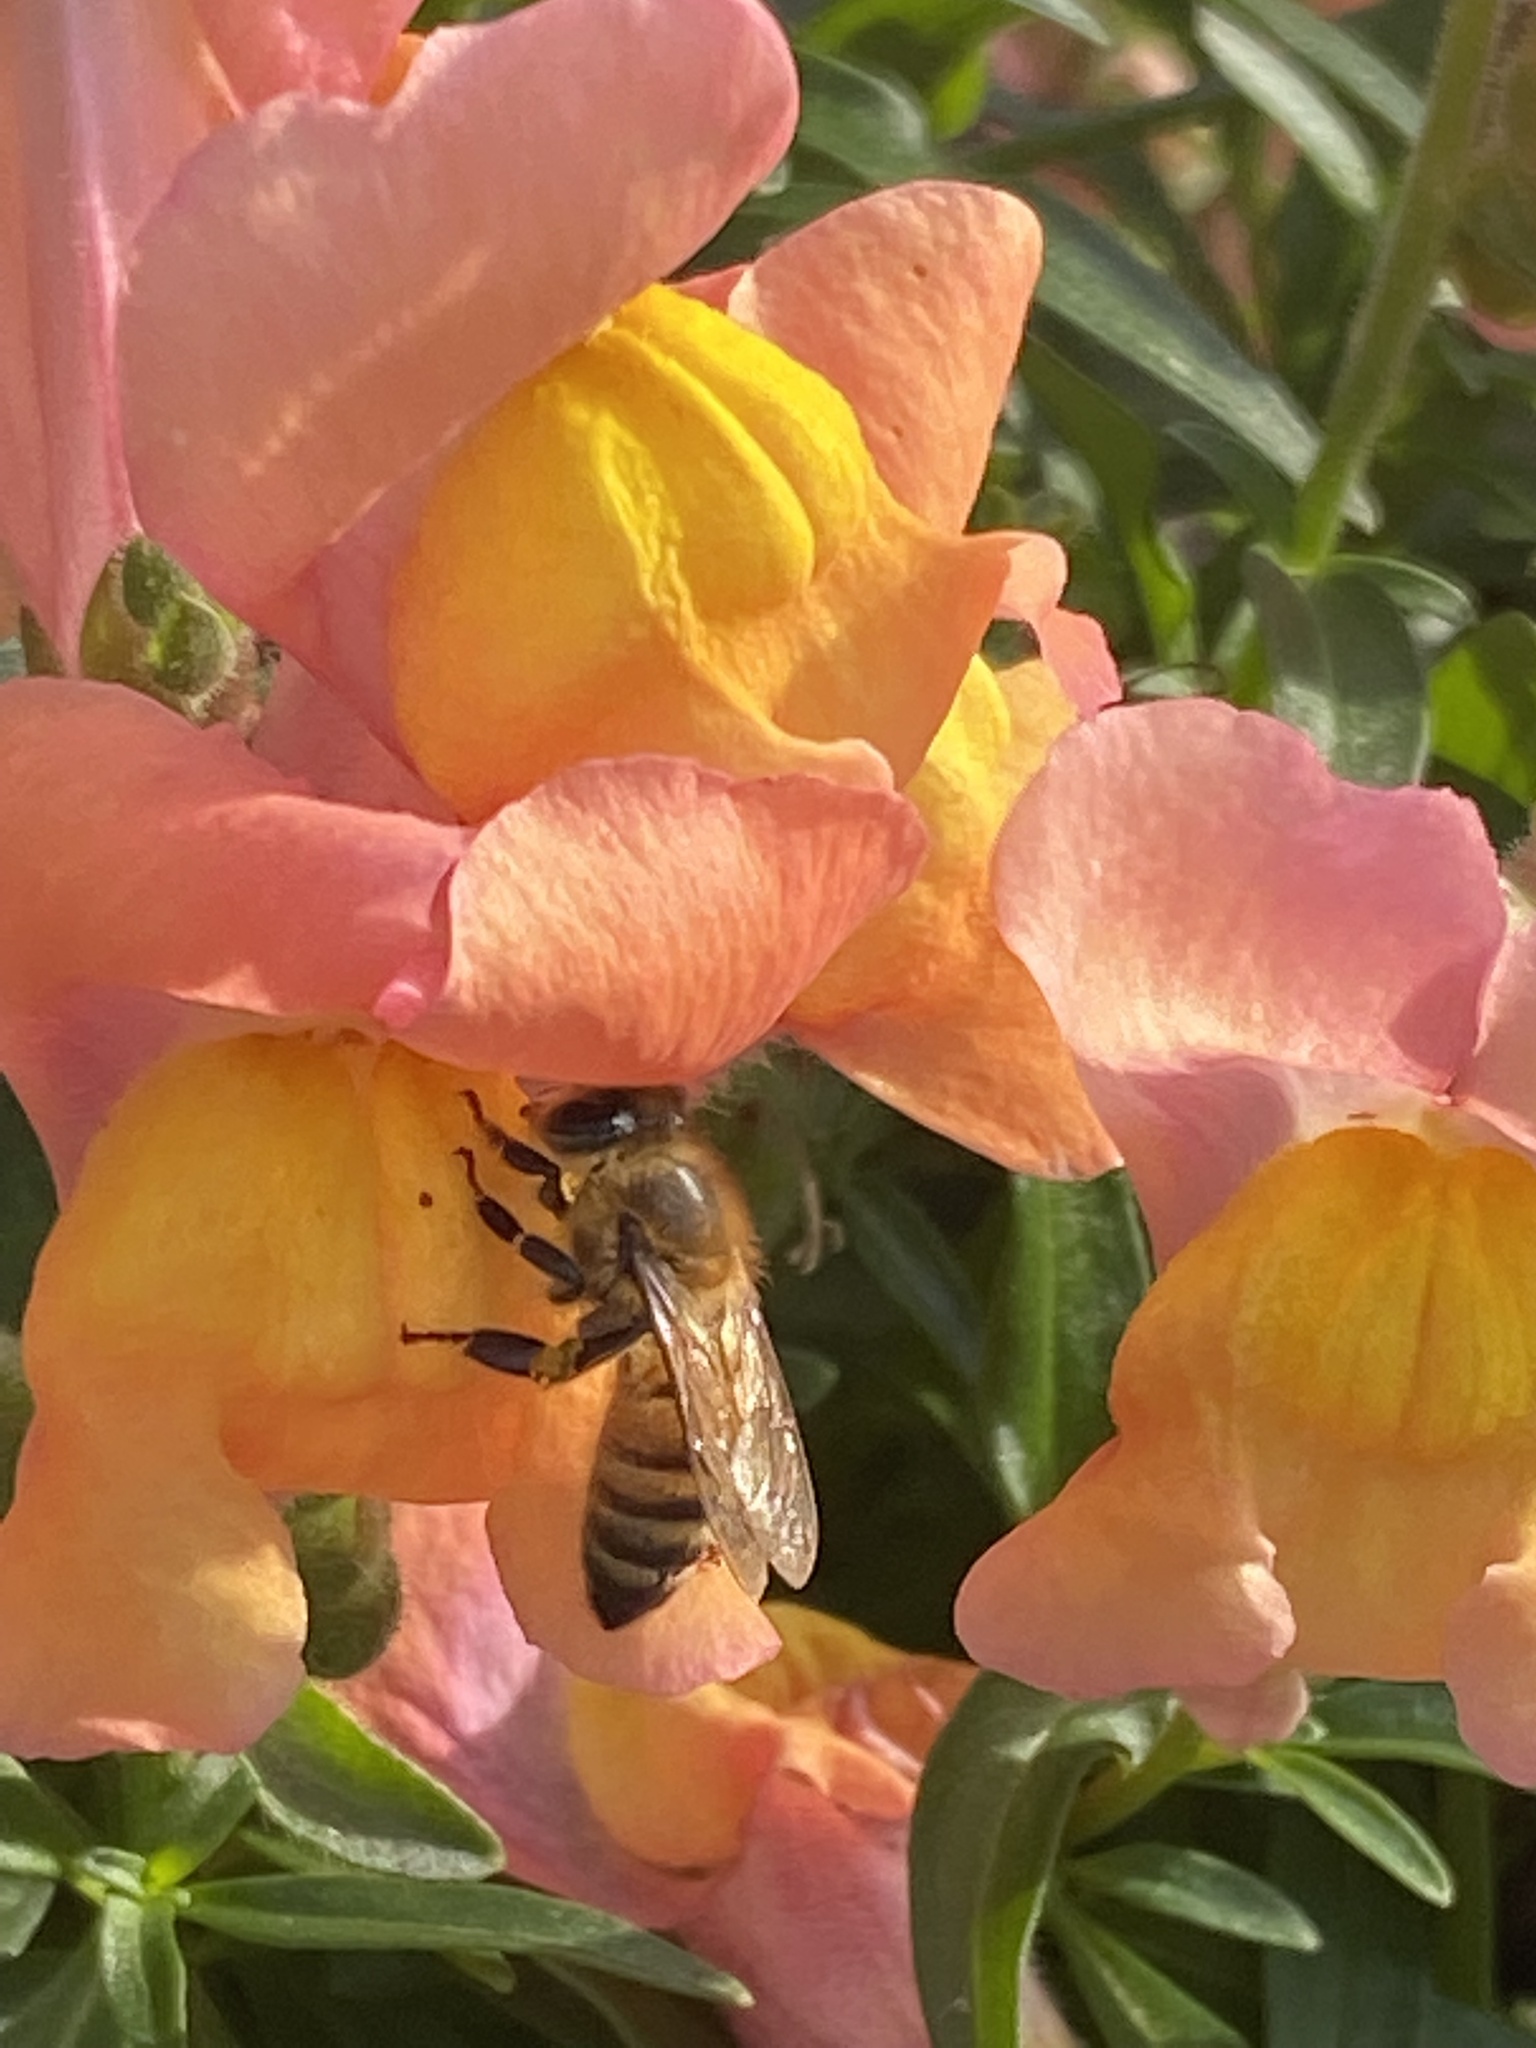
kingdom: Animalia
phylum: Arthropoda
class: Insecta
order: Hymenoptera
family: Apidae
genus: Apis
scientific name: Apis mellifera
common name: Honey bee
